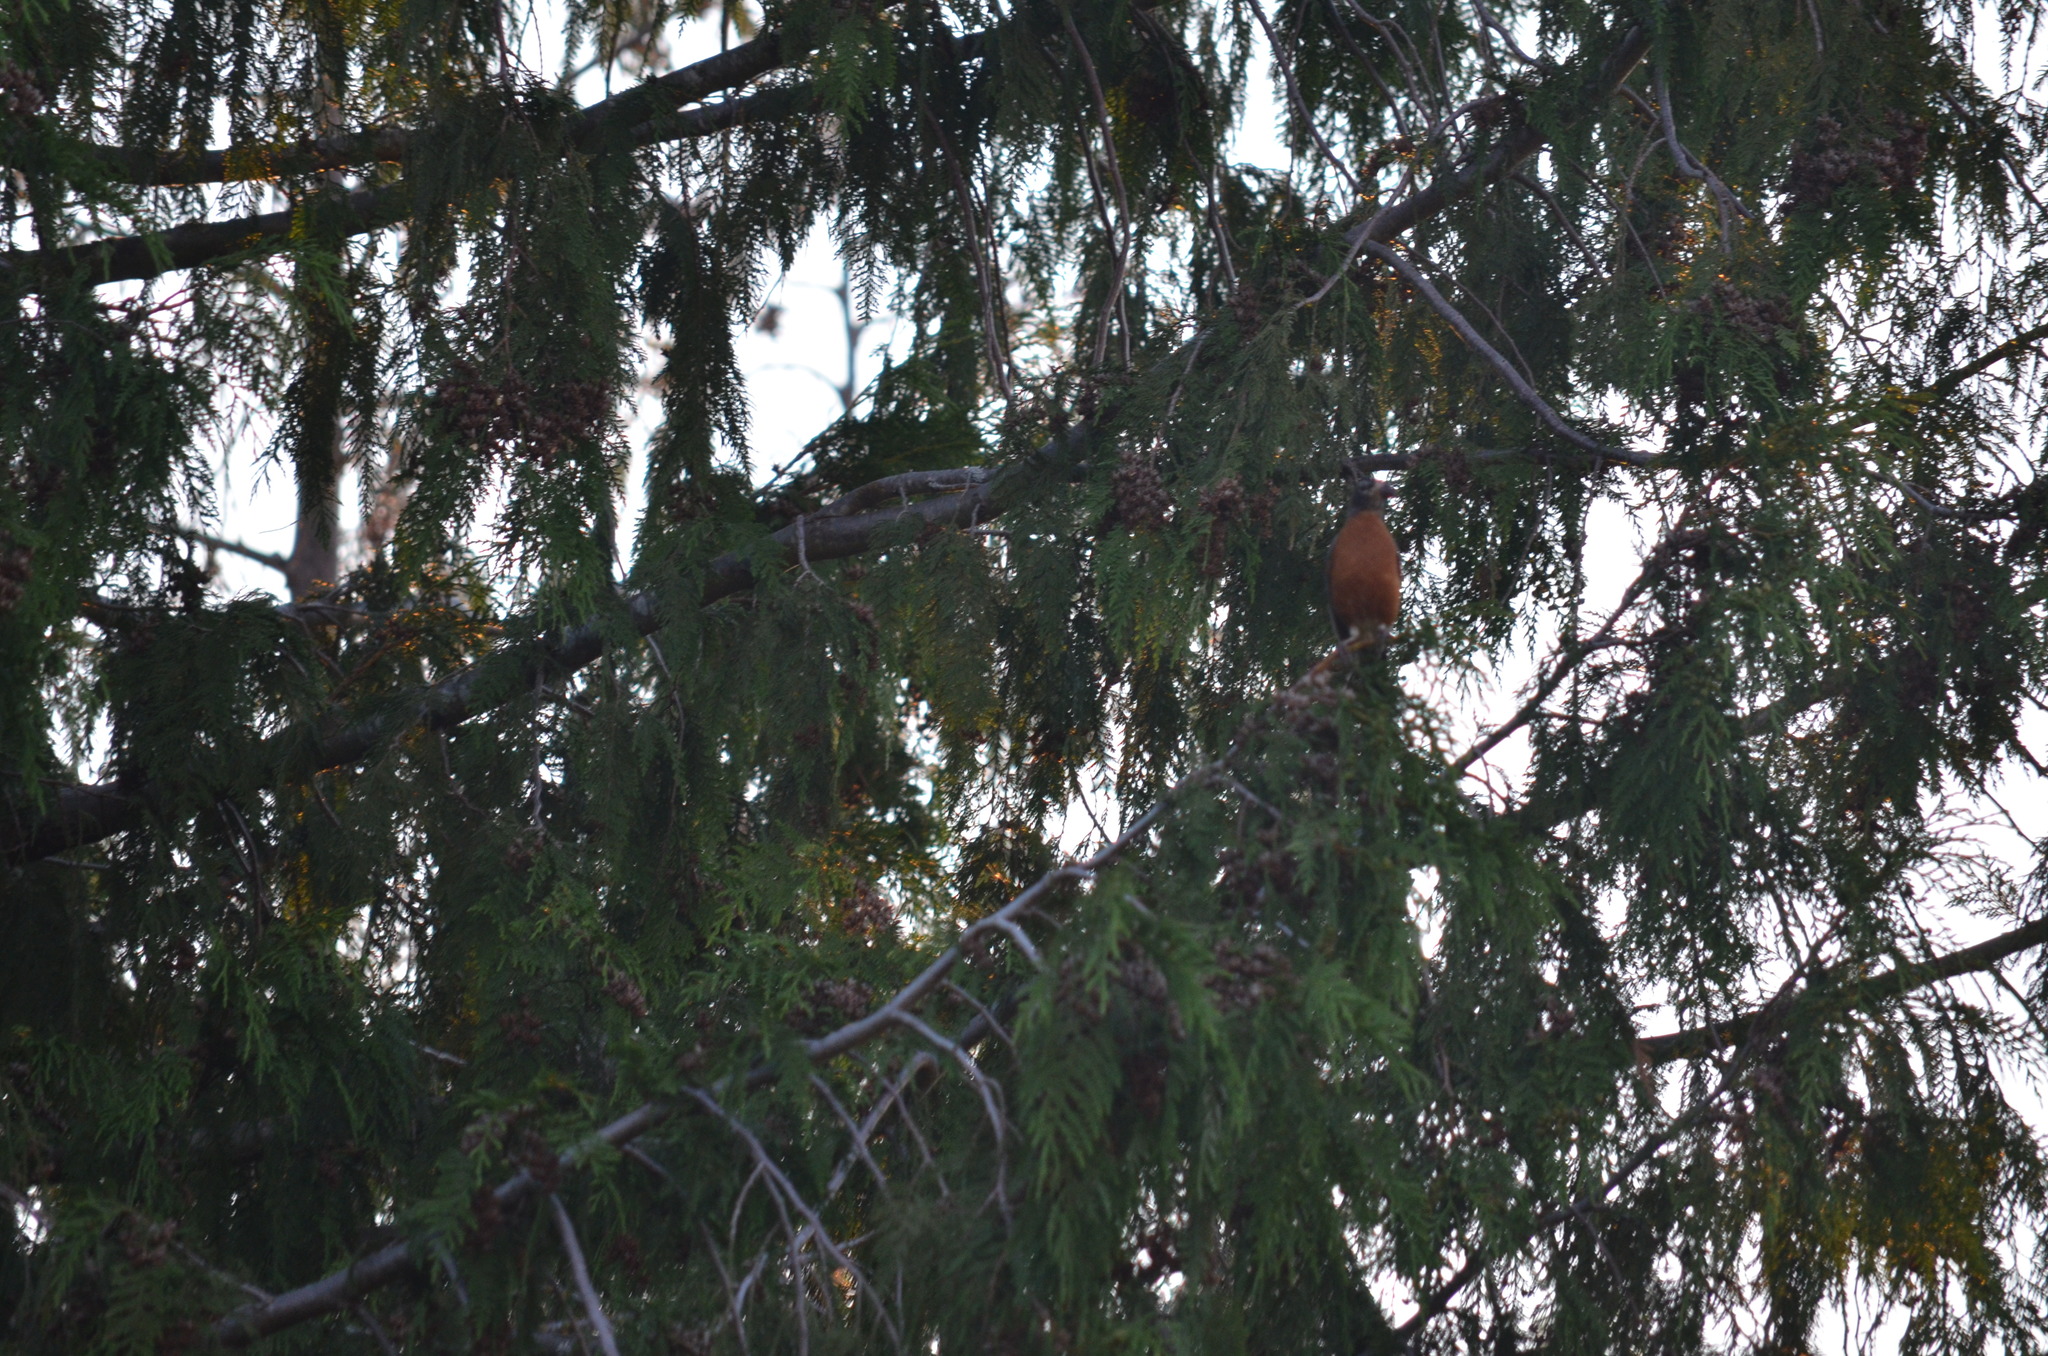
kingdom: Animalia
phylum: Chordata
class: Aves
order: Passeriformes
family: Turdidae
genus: Turdus
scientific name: Turdus migratorius
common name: American robin
